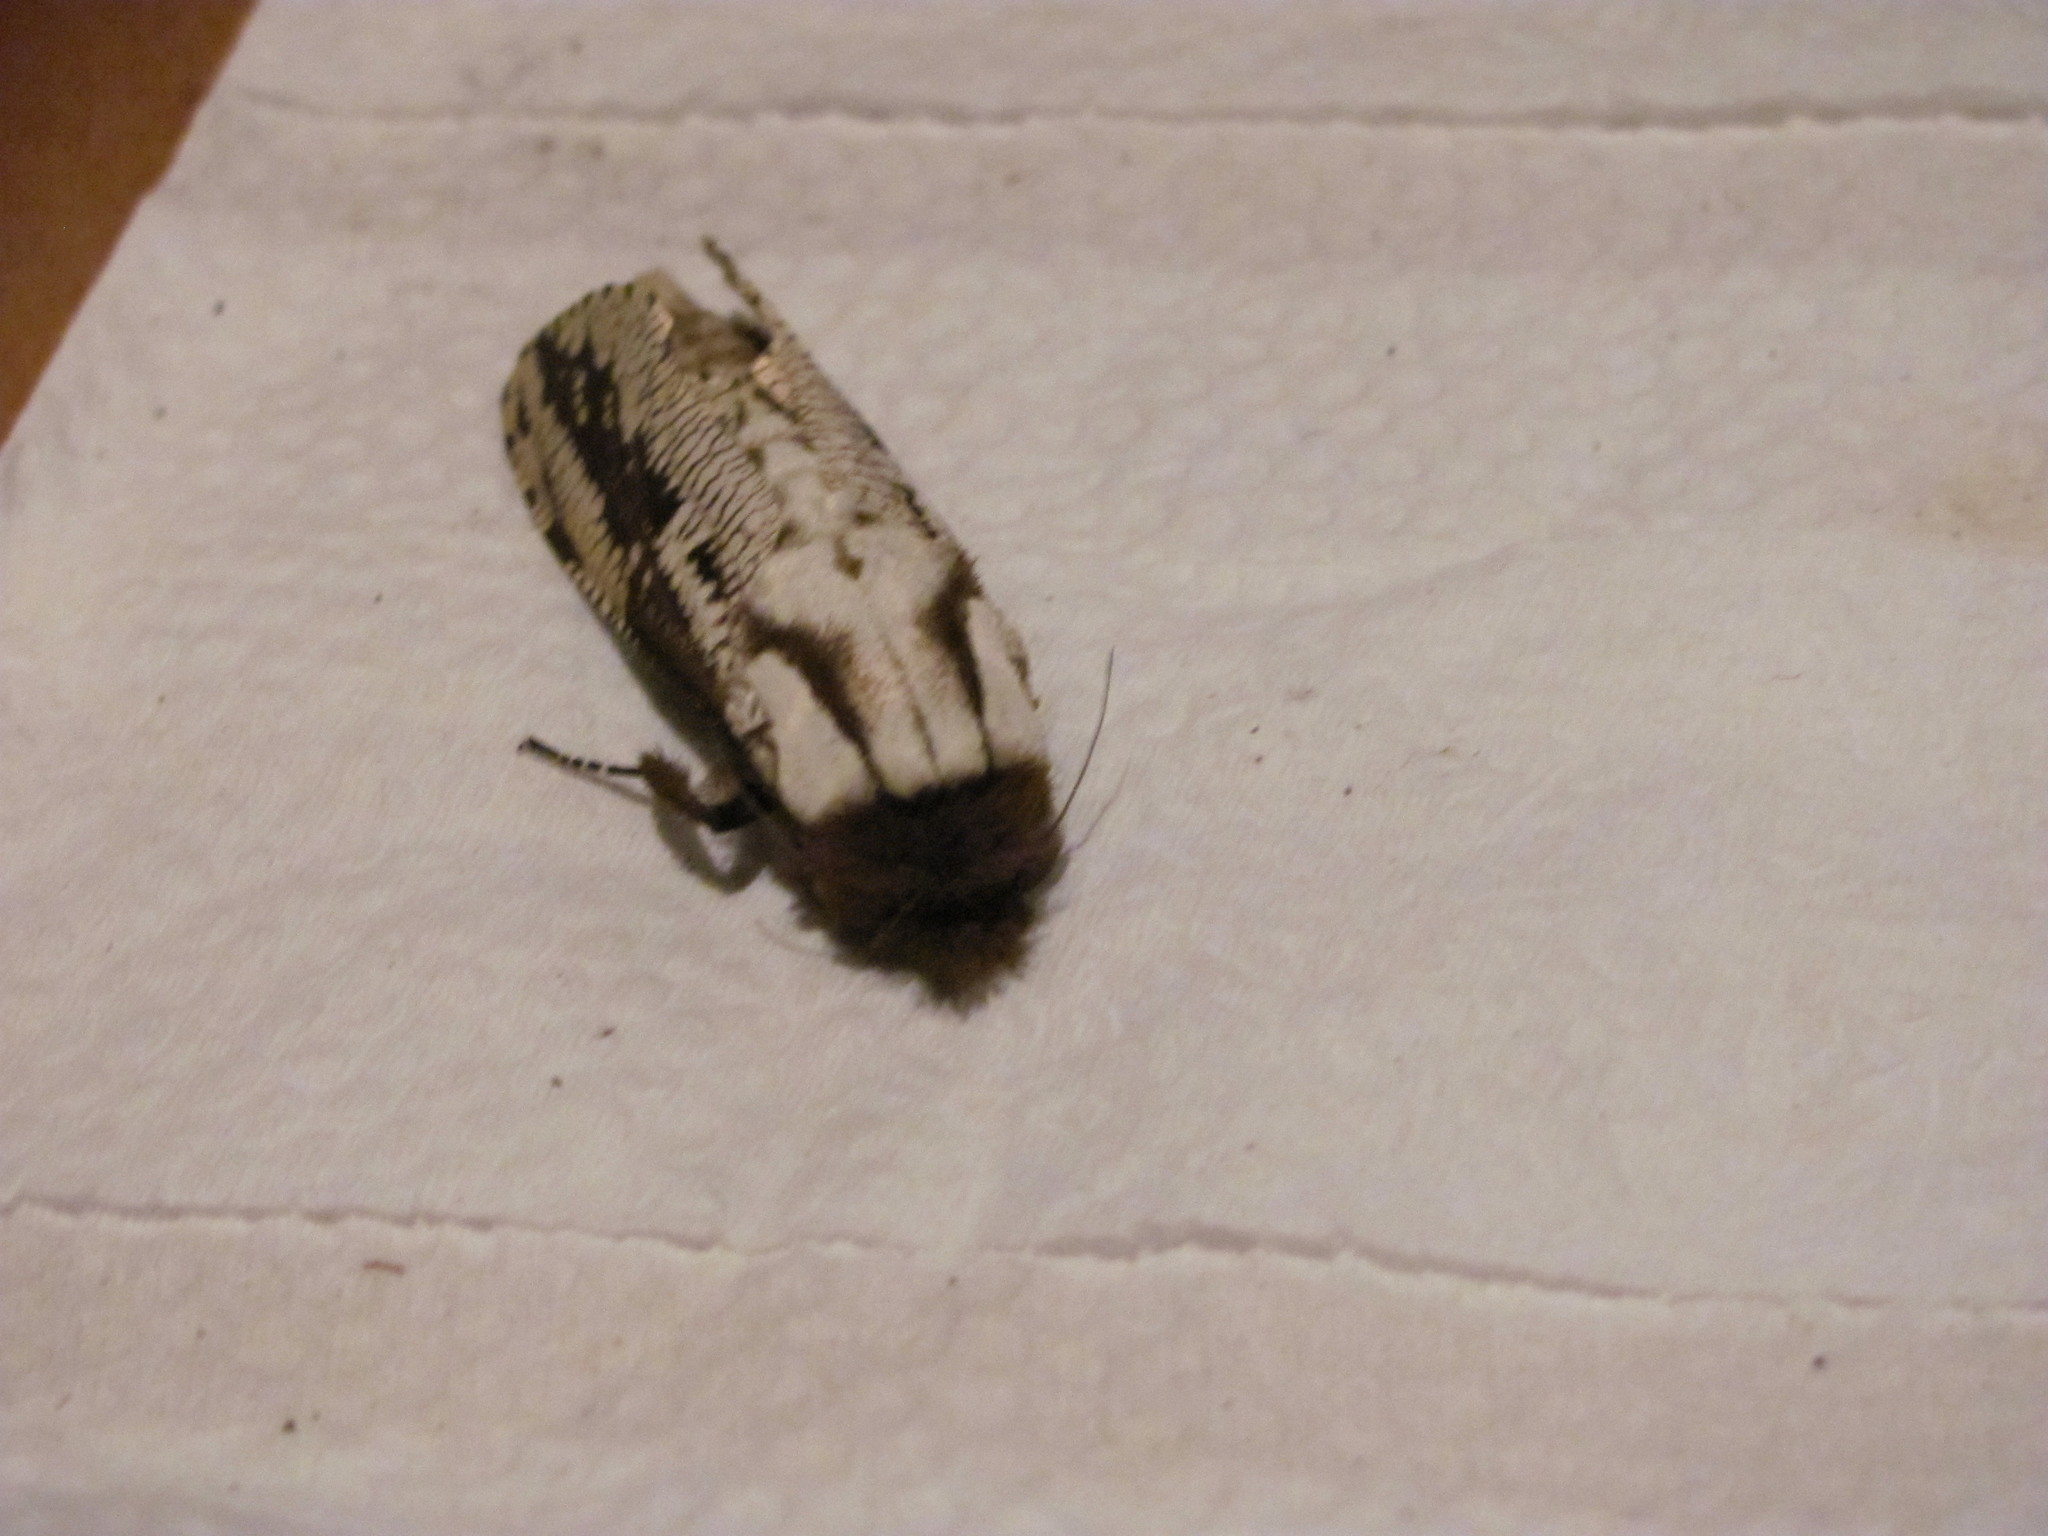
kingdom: Animalia
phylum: Arthropoda
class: Insecta
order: Lepidoptera
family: Cossidae
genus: Morpheis
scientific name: Morpheis pyracmon
